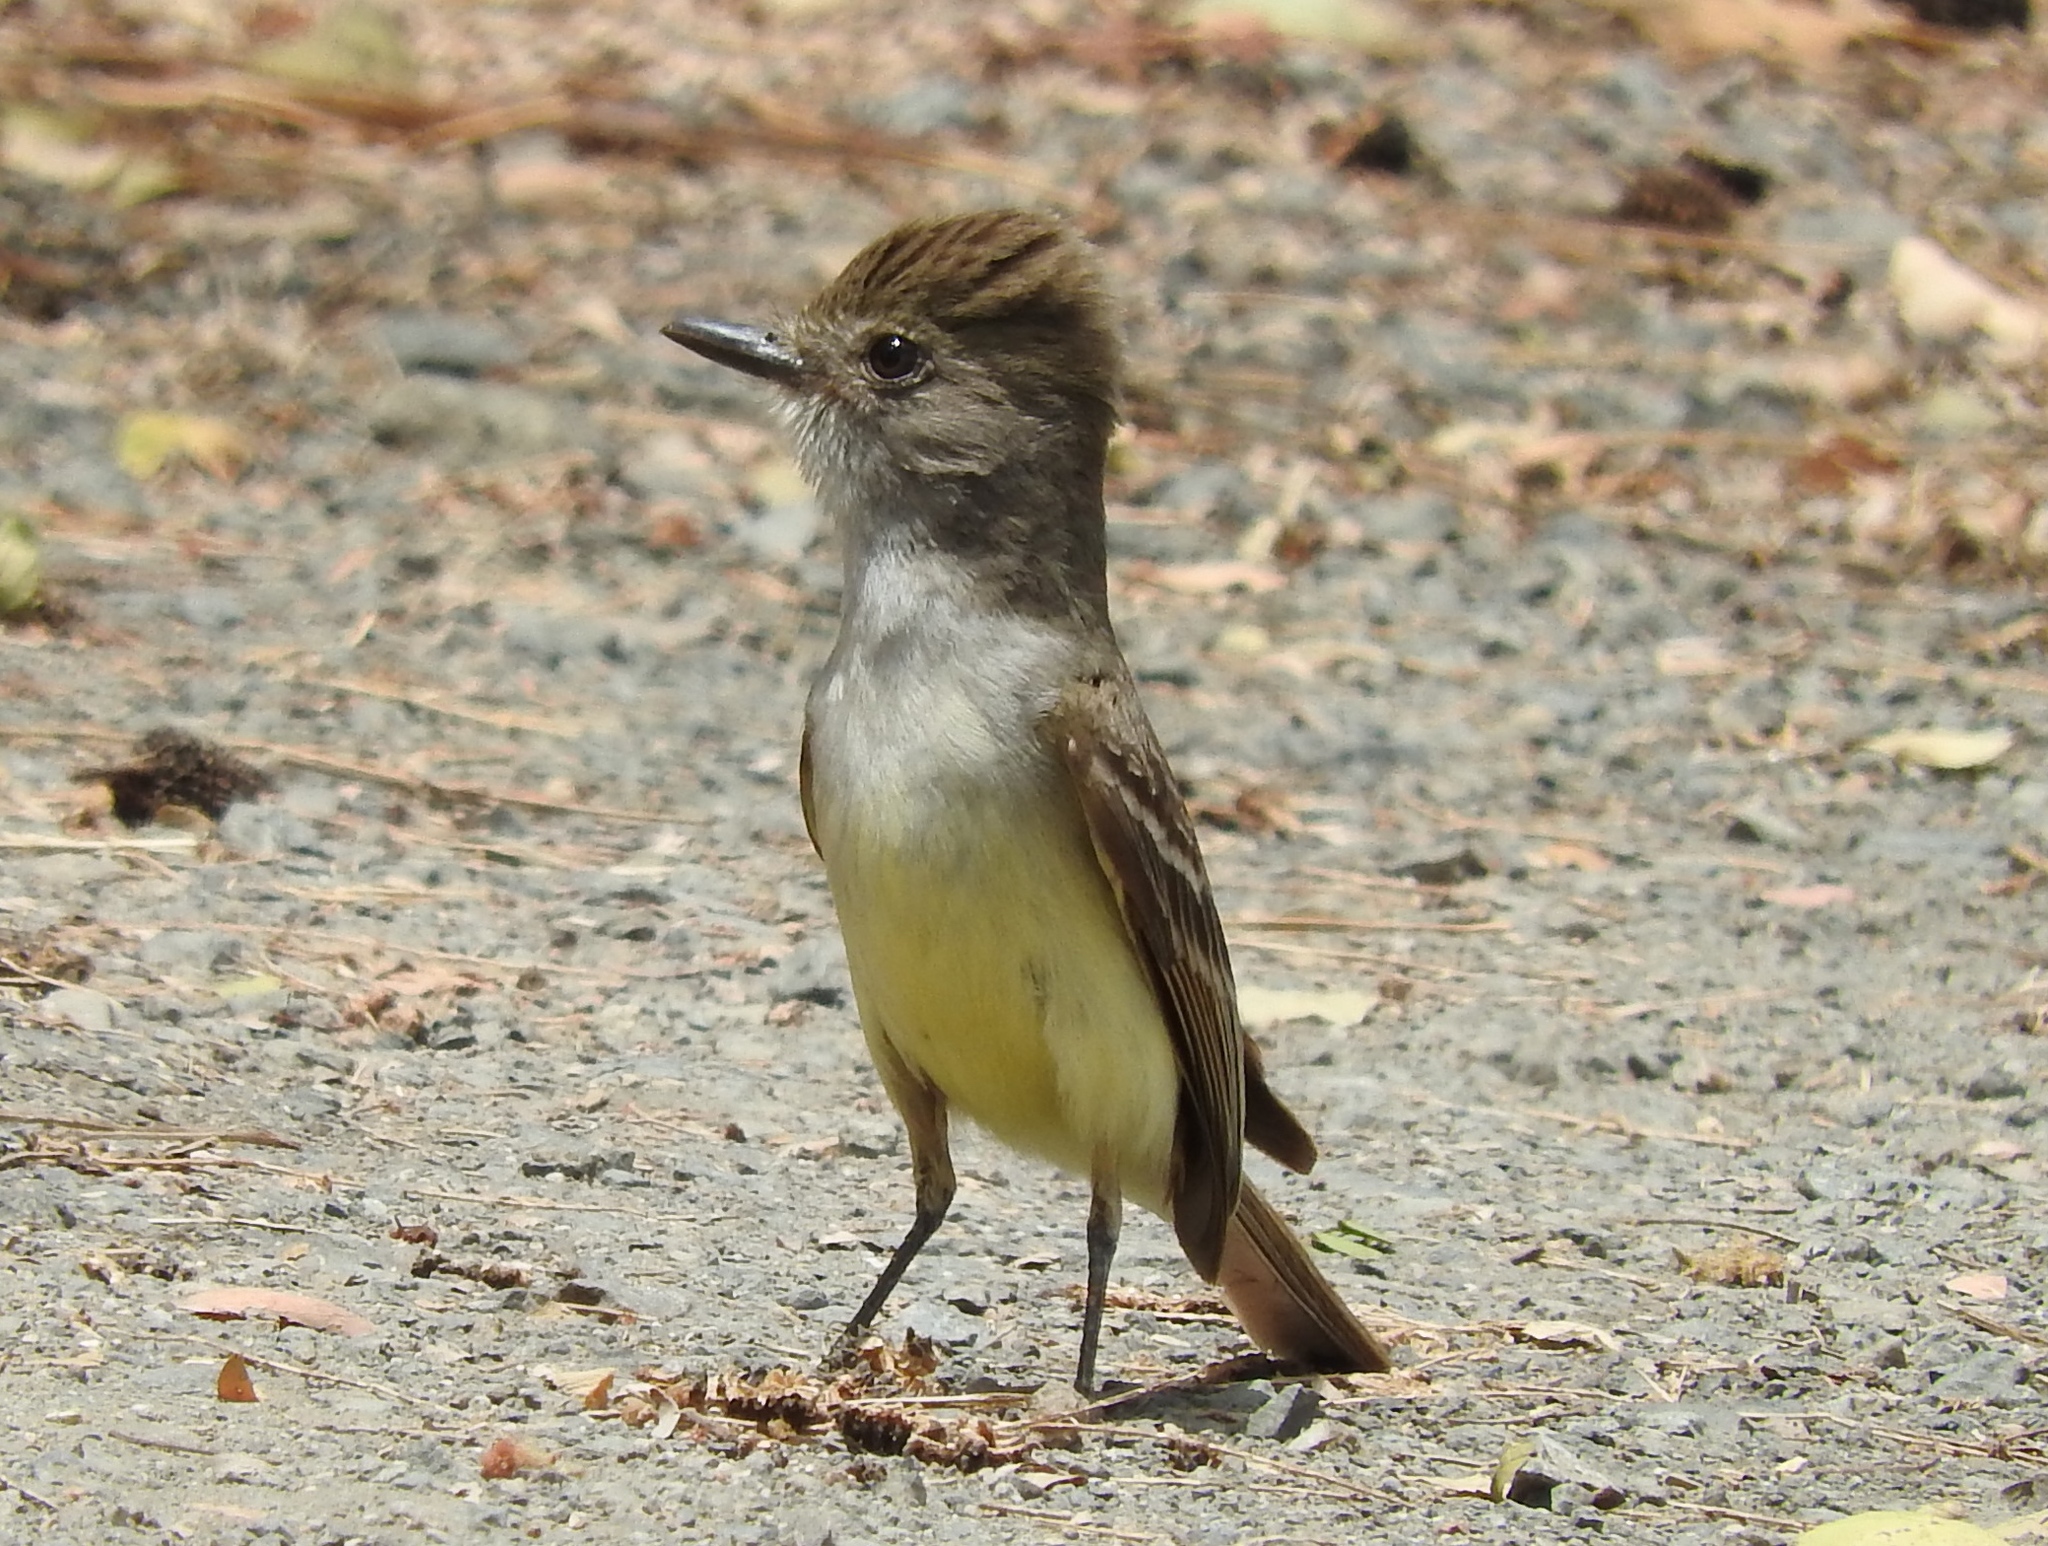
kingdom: Animalia
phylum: Chordata
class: Aves
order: Passeriformes
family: Tyrannidae
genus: Myiarchus
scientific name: Myiarchus
